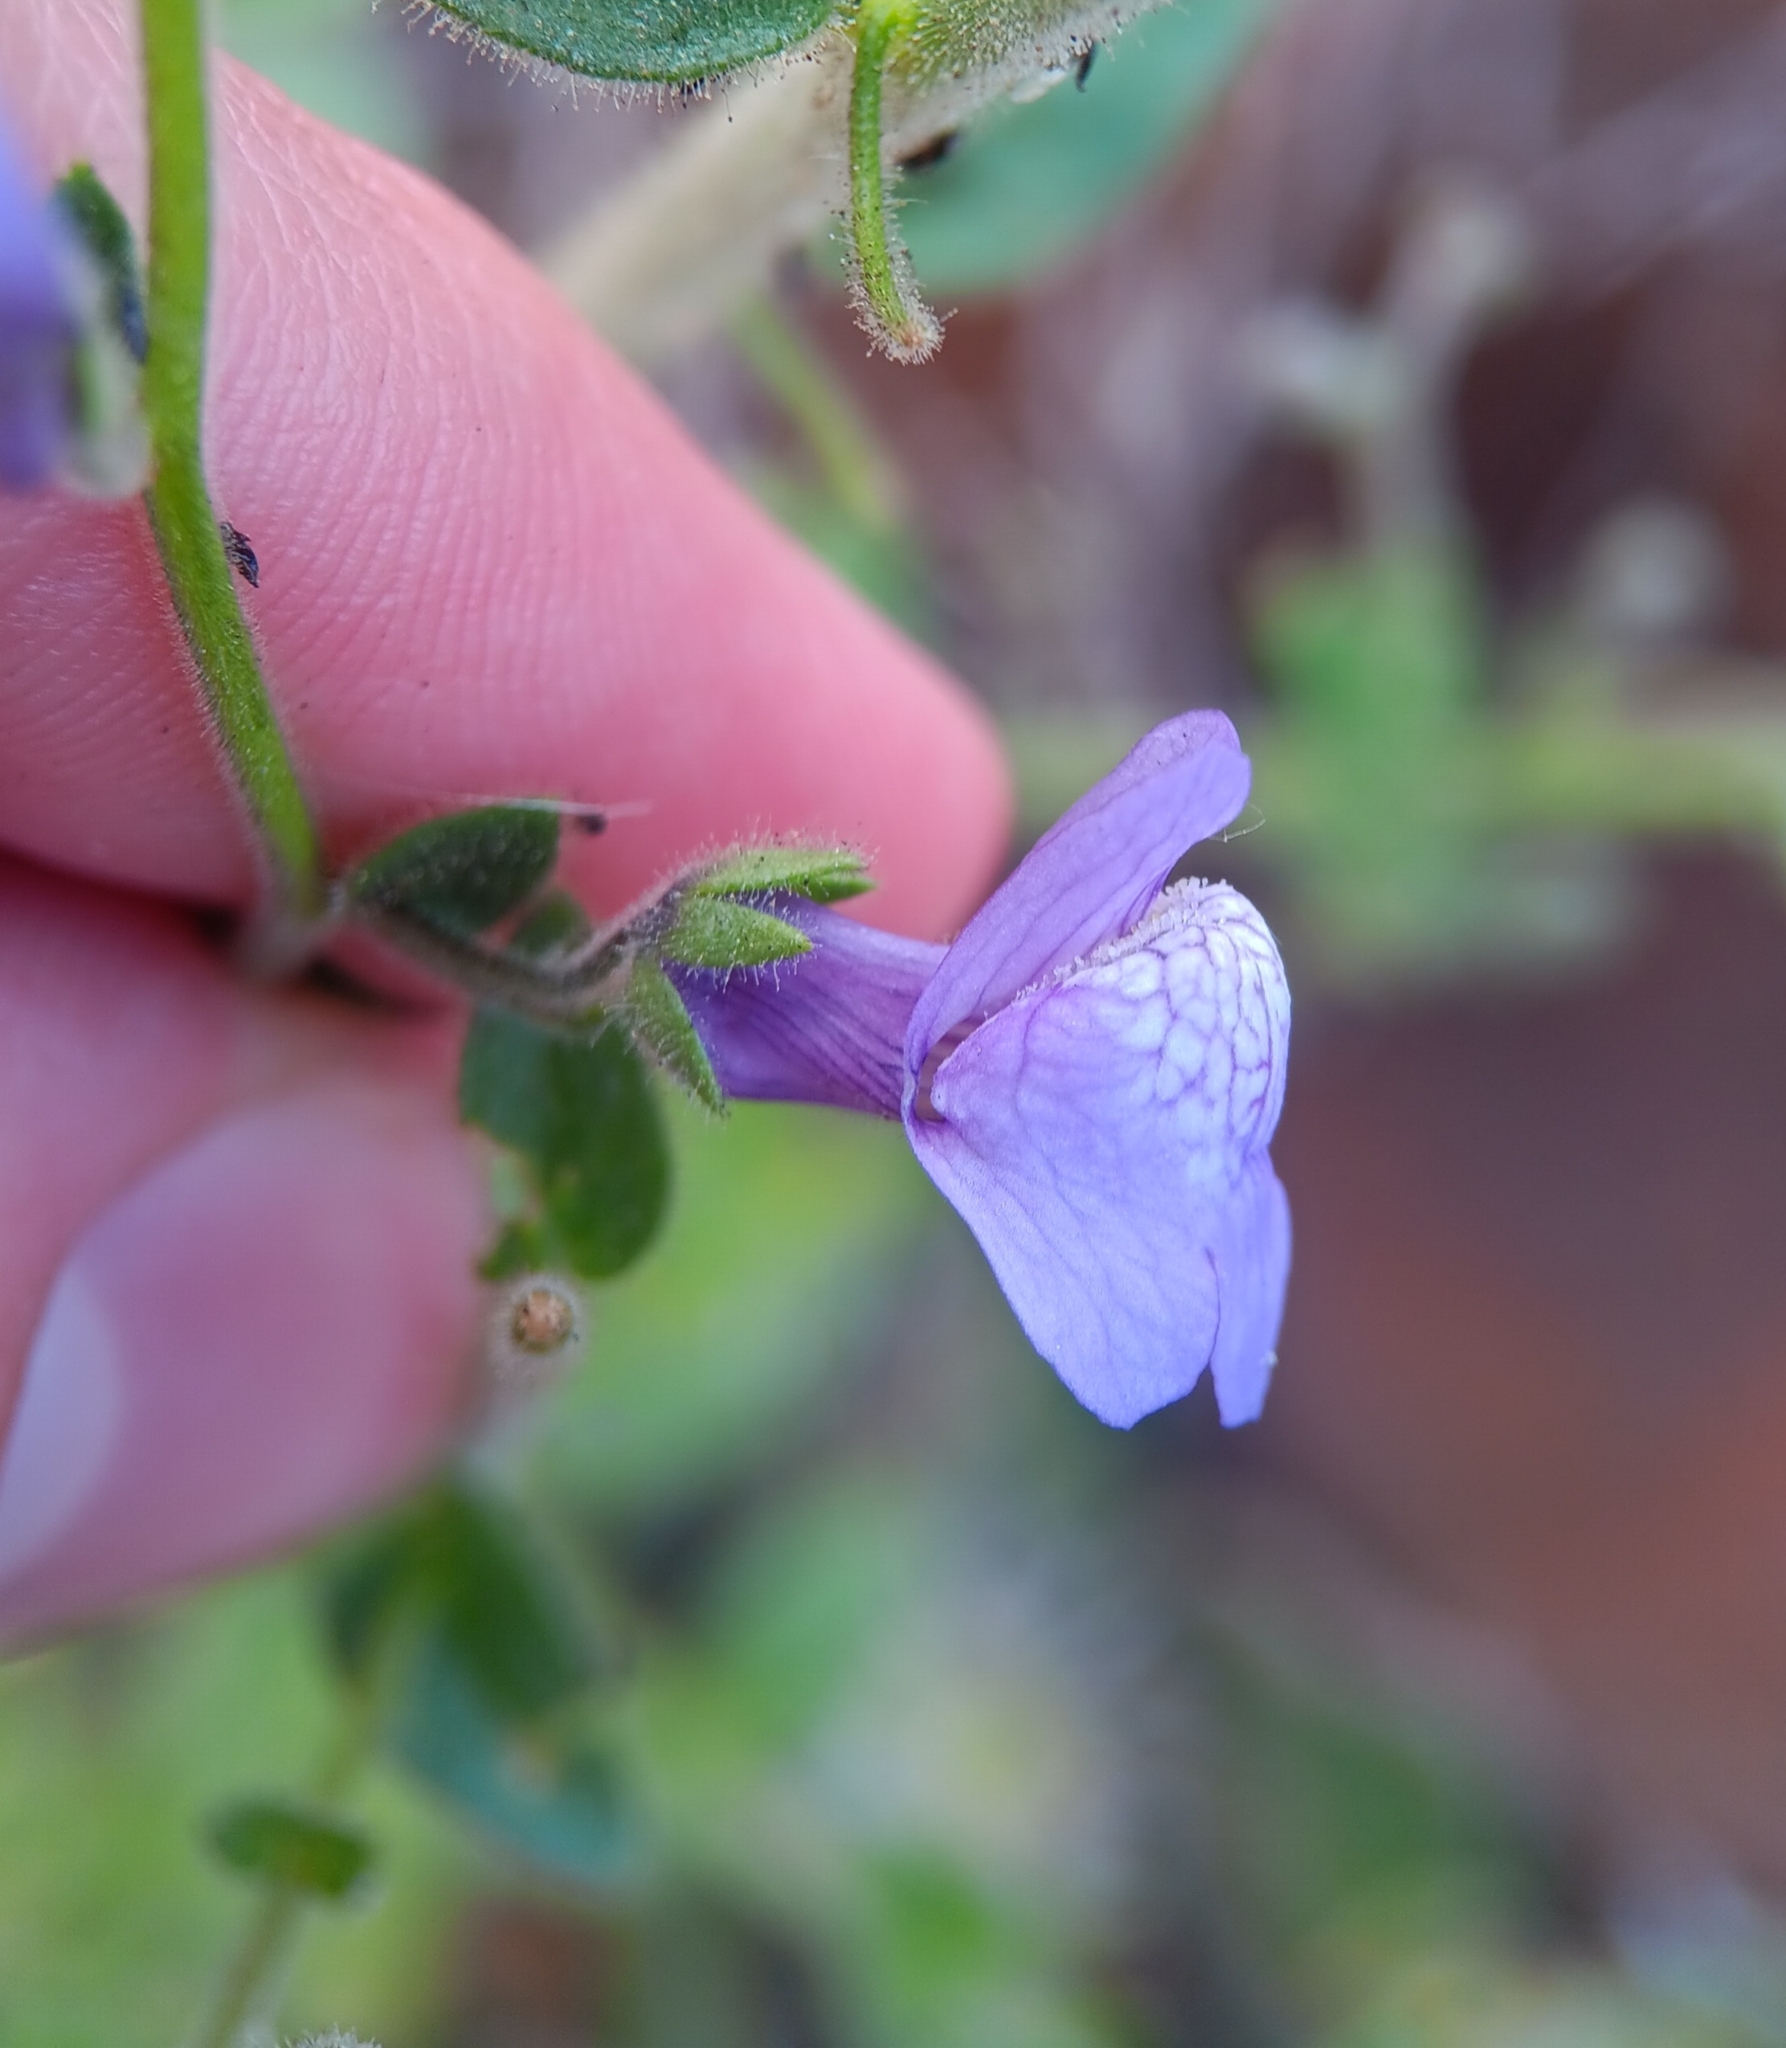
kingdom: Plantae
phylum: Tracheophyta
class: Magnoliopsida
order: Lamiales
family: Plantaginaceae
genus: Sairocarpus
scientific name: Sairocarpus nuttallianus
